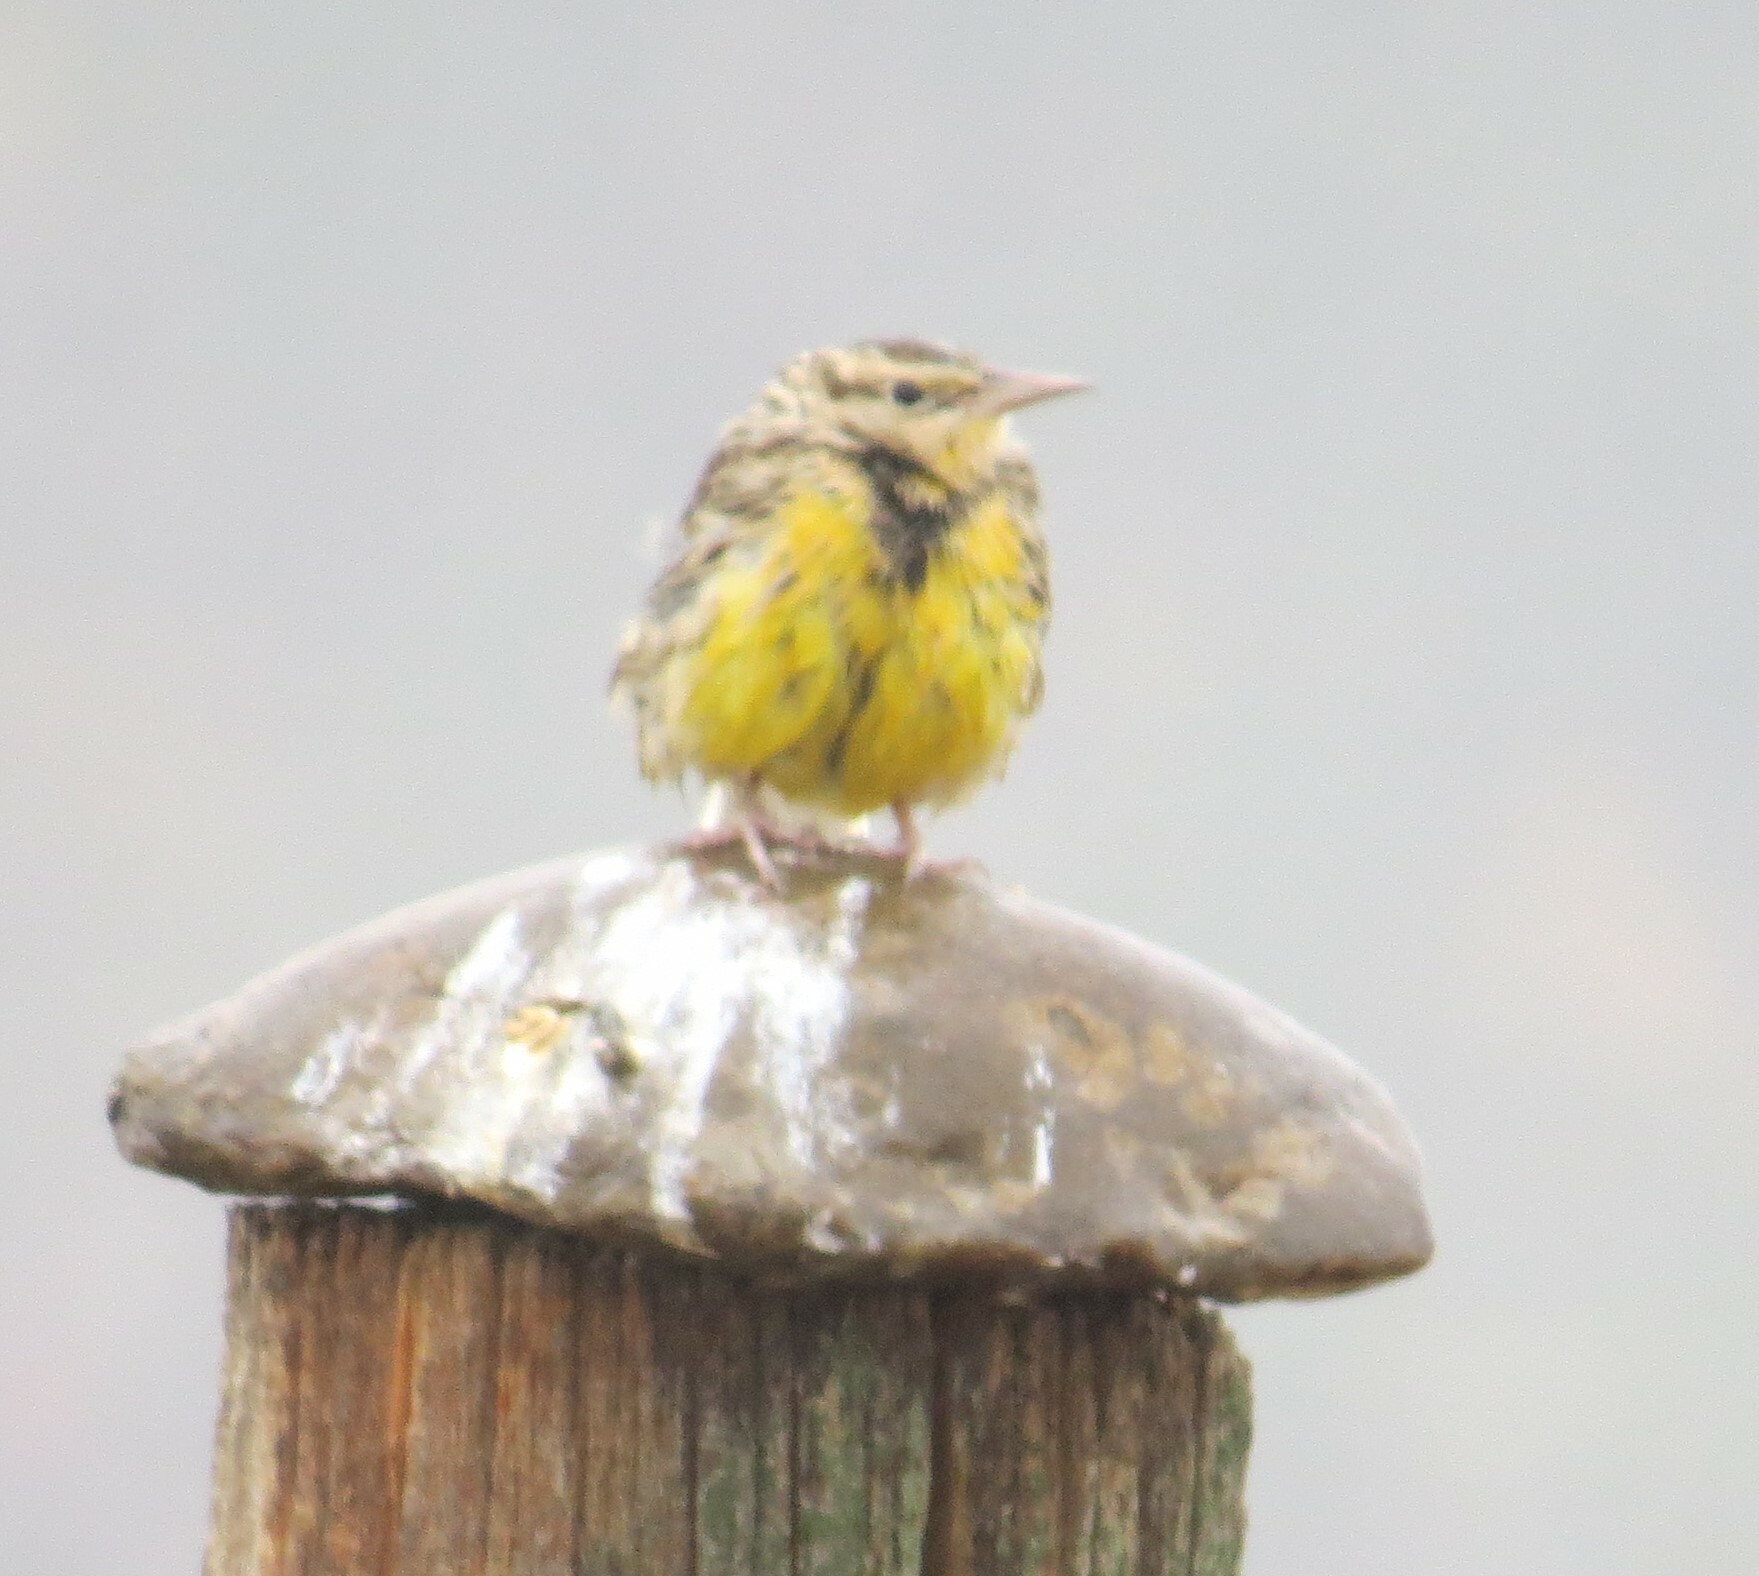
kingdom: Animalia
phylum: Chordata
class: Aves
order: Passeriformes
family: Icteridae
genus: Sturnella
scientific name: Sturnella neglecta
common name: Western meadowlark
